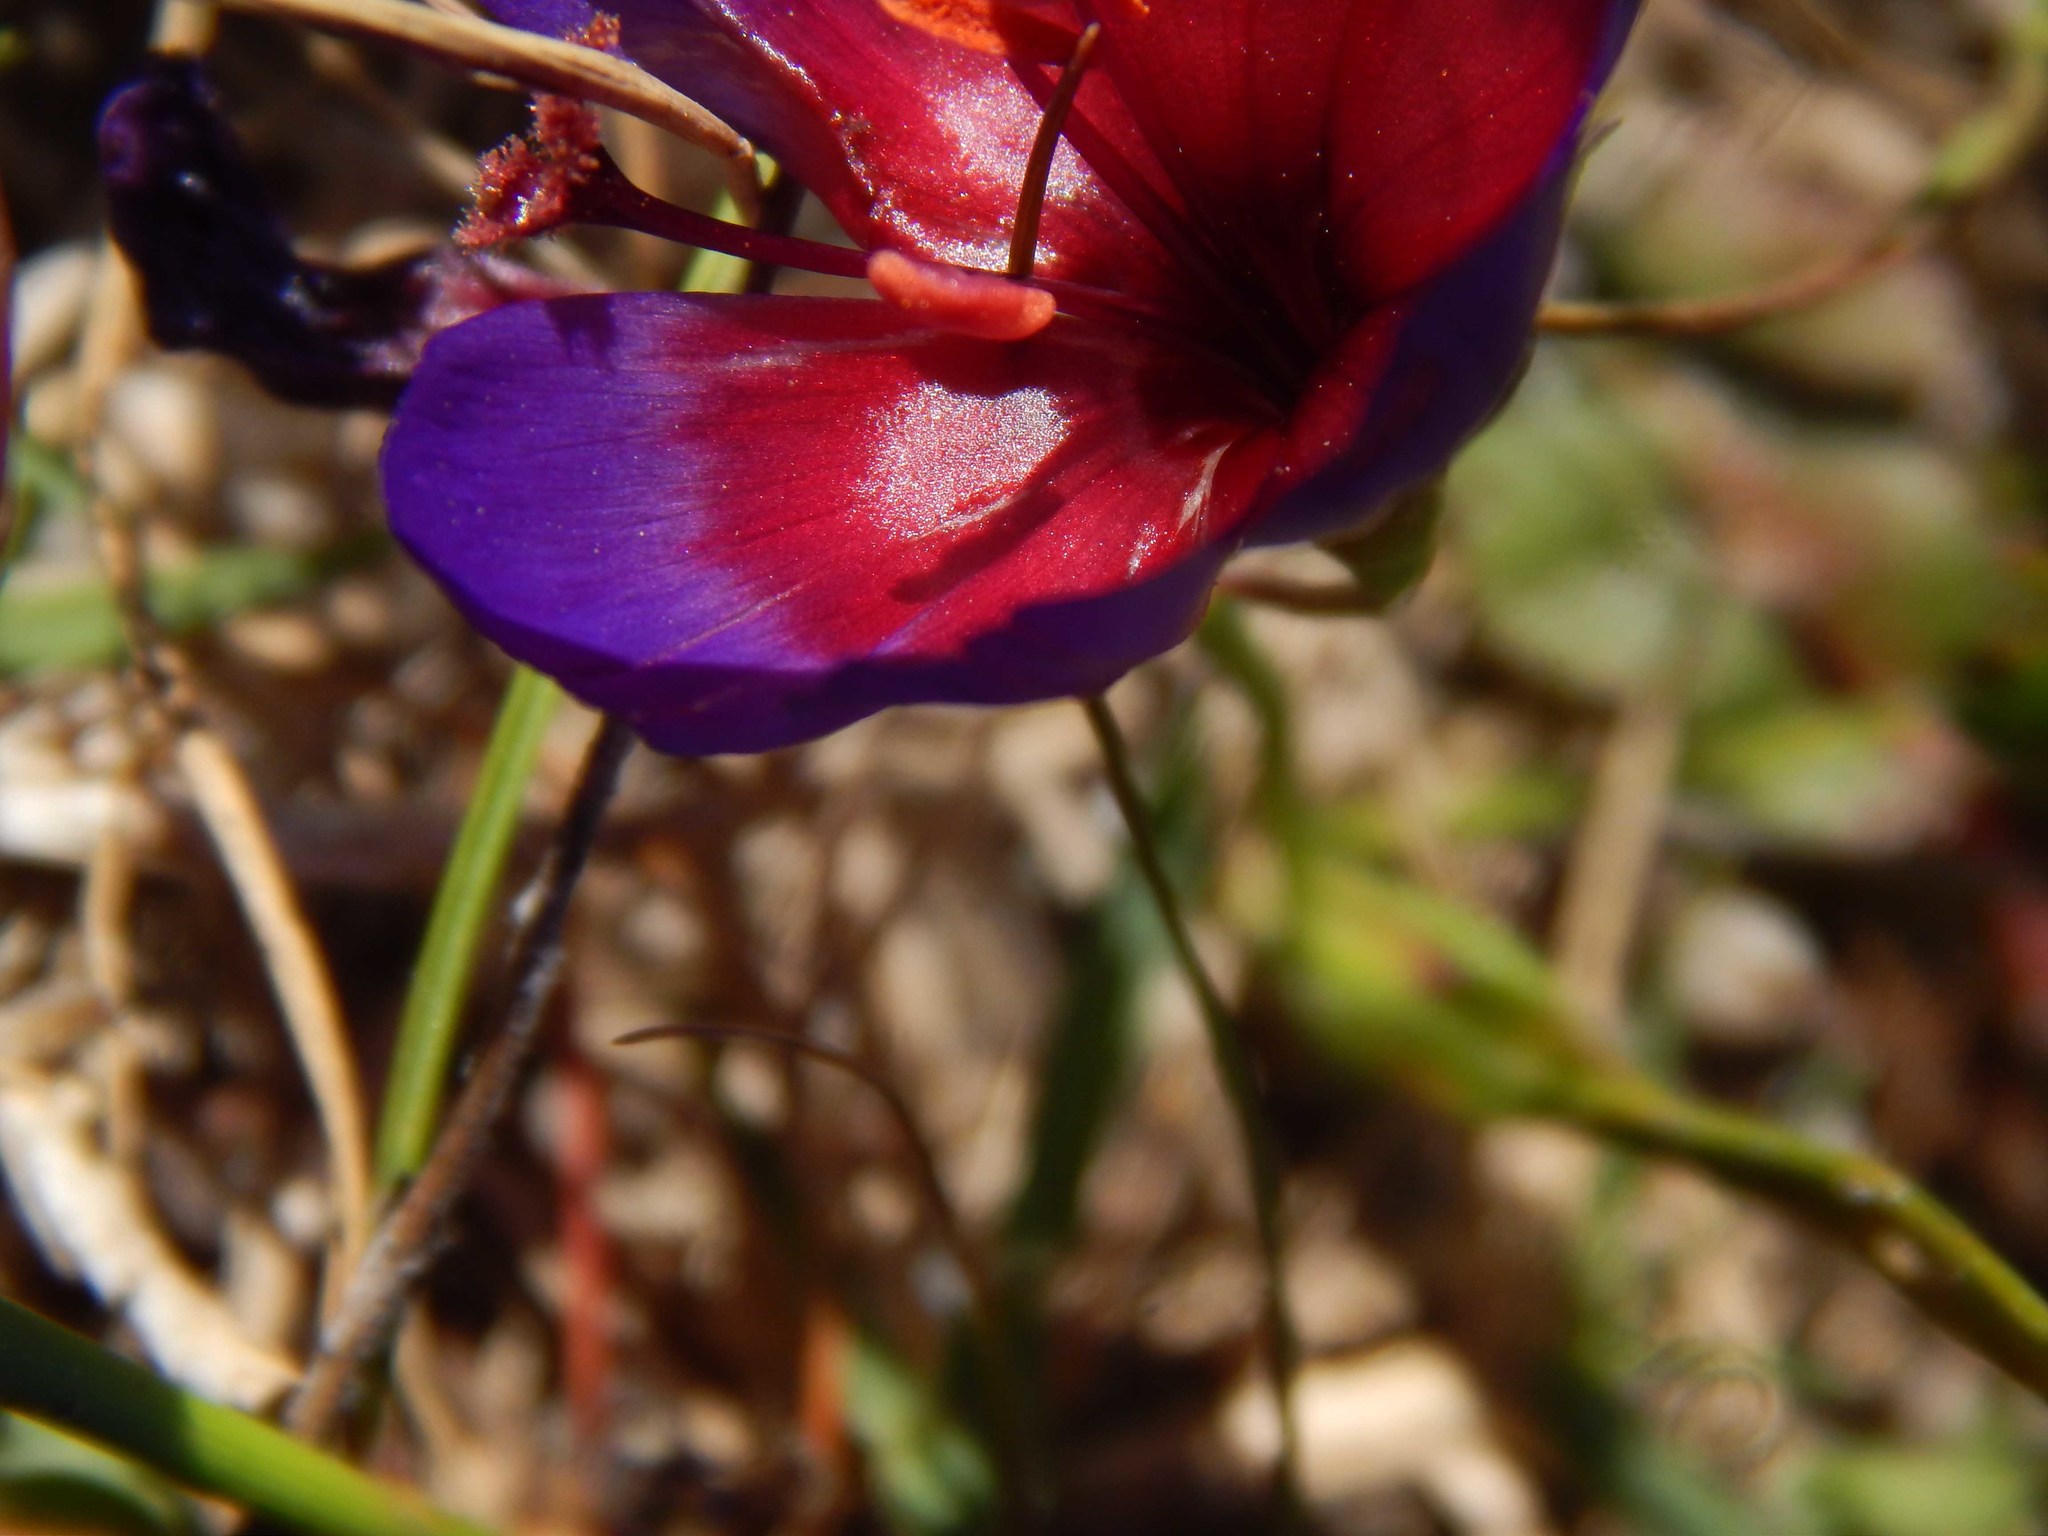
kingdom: Plantae
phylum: Tracheophyta
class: Liliopsida
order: Asparagales
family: Iridaceae
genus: Geissorhiza
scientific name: Geissorhiza eurystigma
